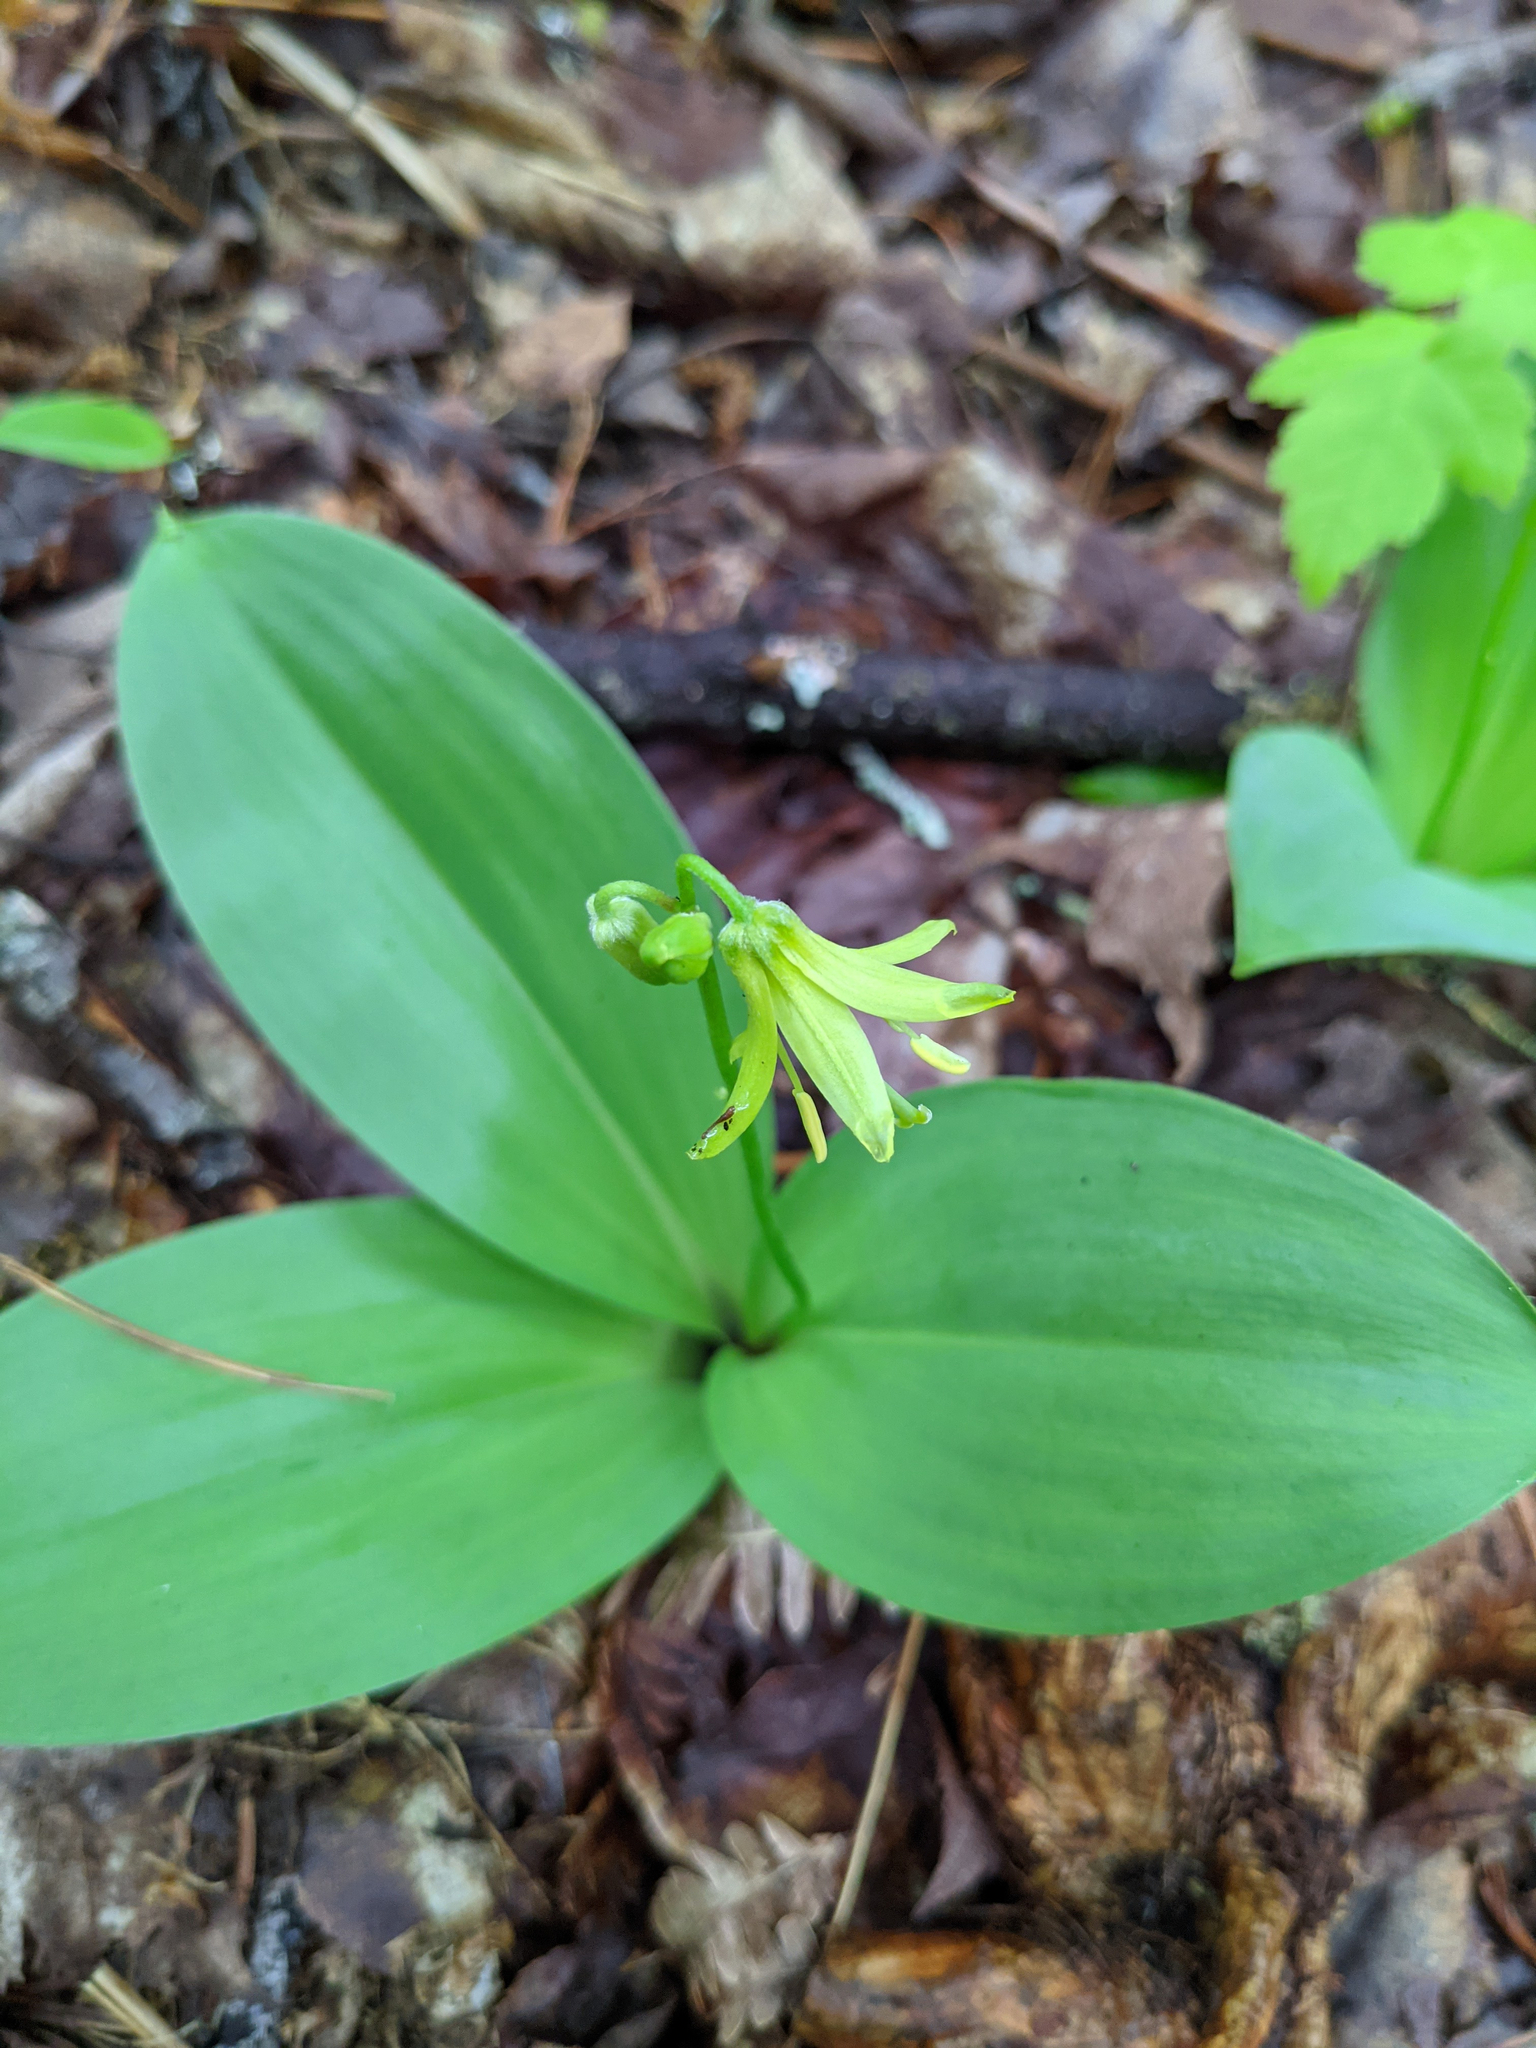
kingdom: Plantae
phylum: Tracheophyta
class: Liliopsida
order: Liliales
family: Liliaceae
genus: Clintonia
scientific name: Clintonia borealis
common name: Yellow clintonia
